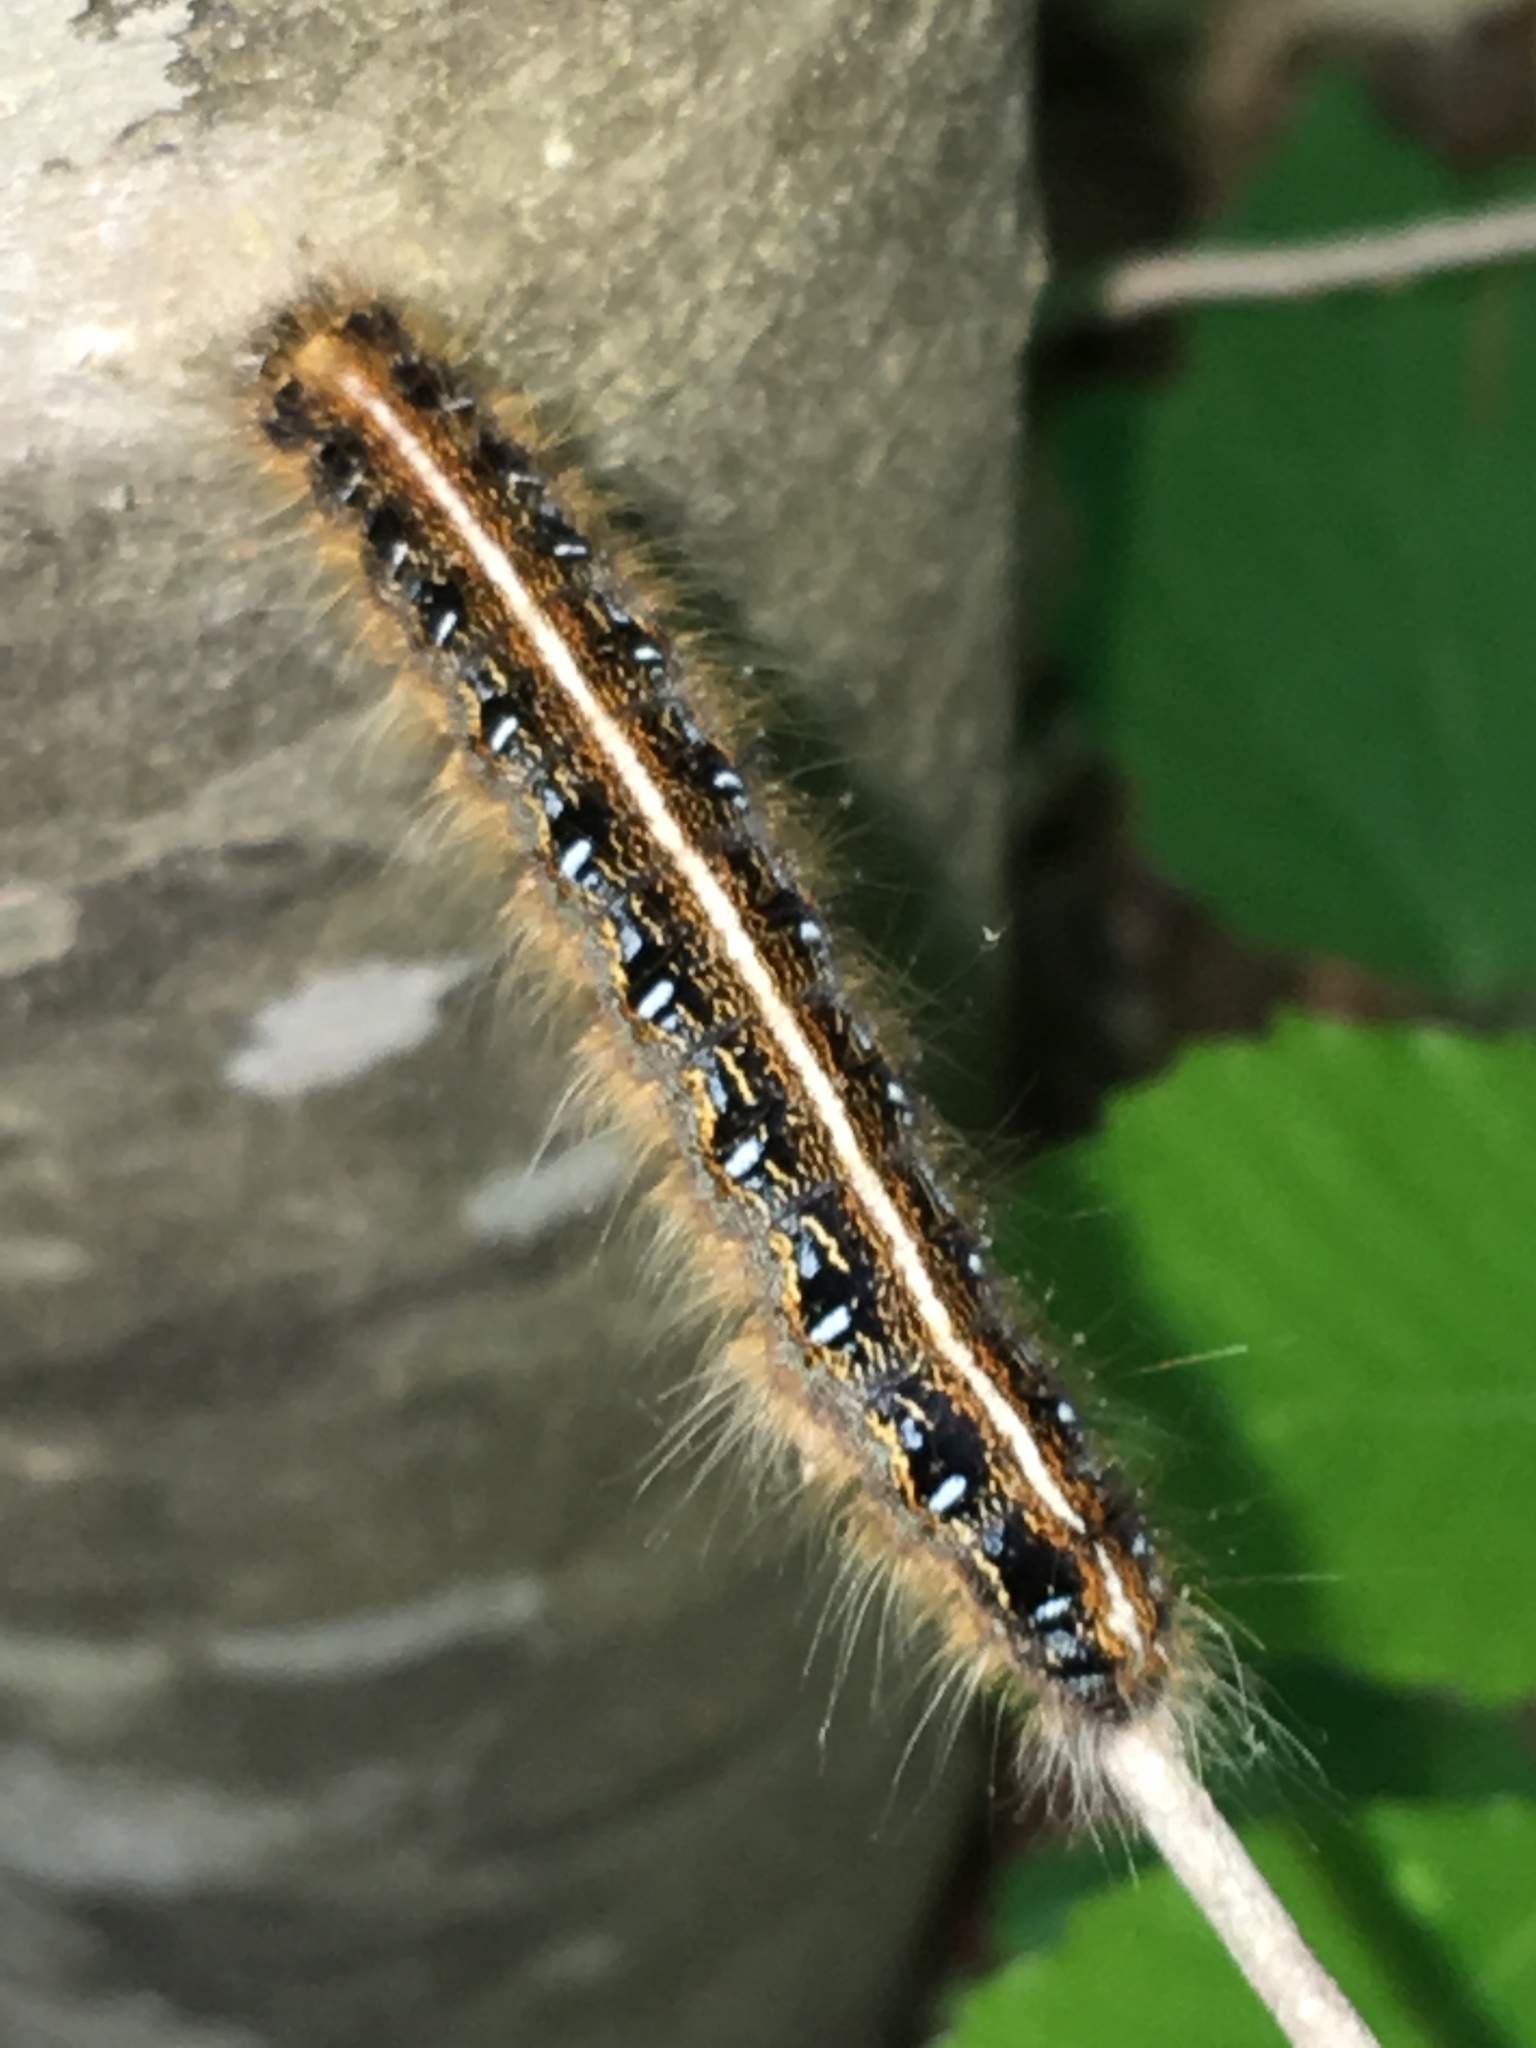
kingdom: Animalia
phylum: Arthropoda
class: Insecta
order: Lepidoptera
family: Lasiocampidae
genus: Malacosoma
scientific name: Malacosoma americana
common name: Eastern tent caterpillar moth
